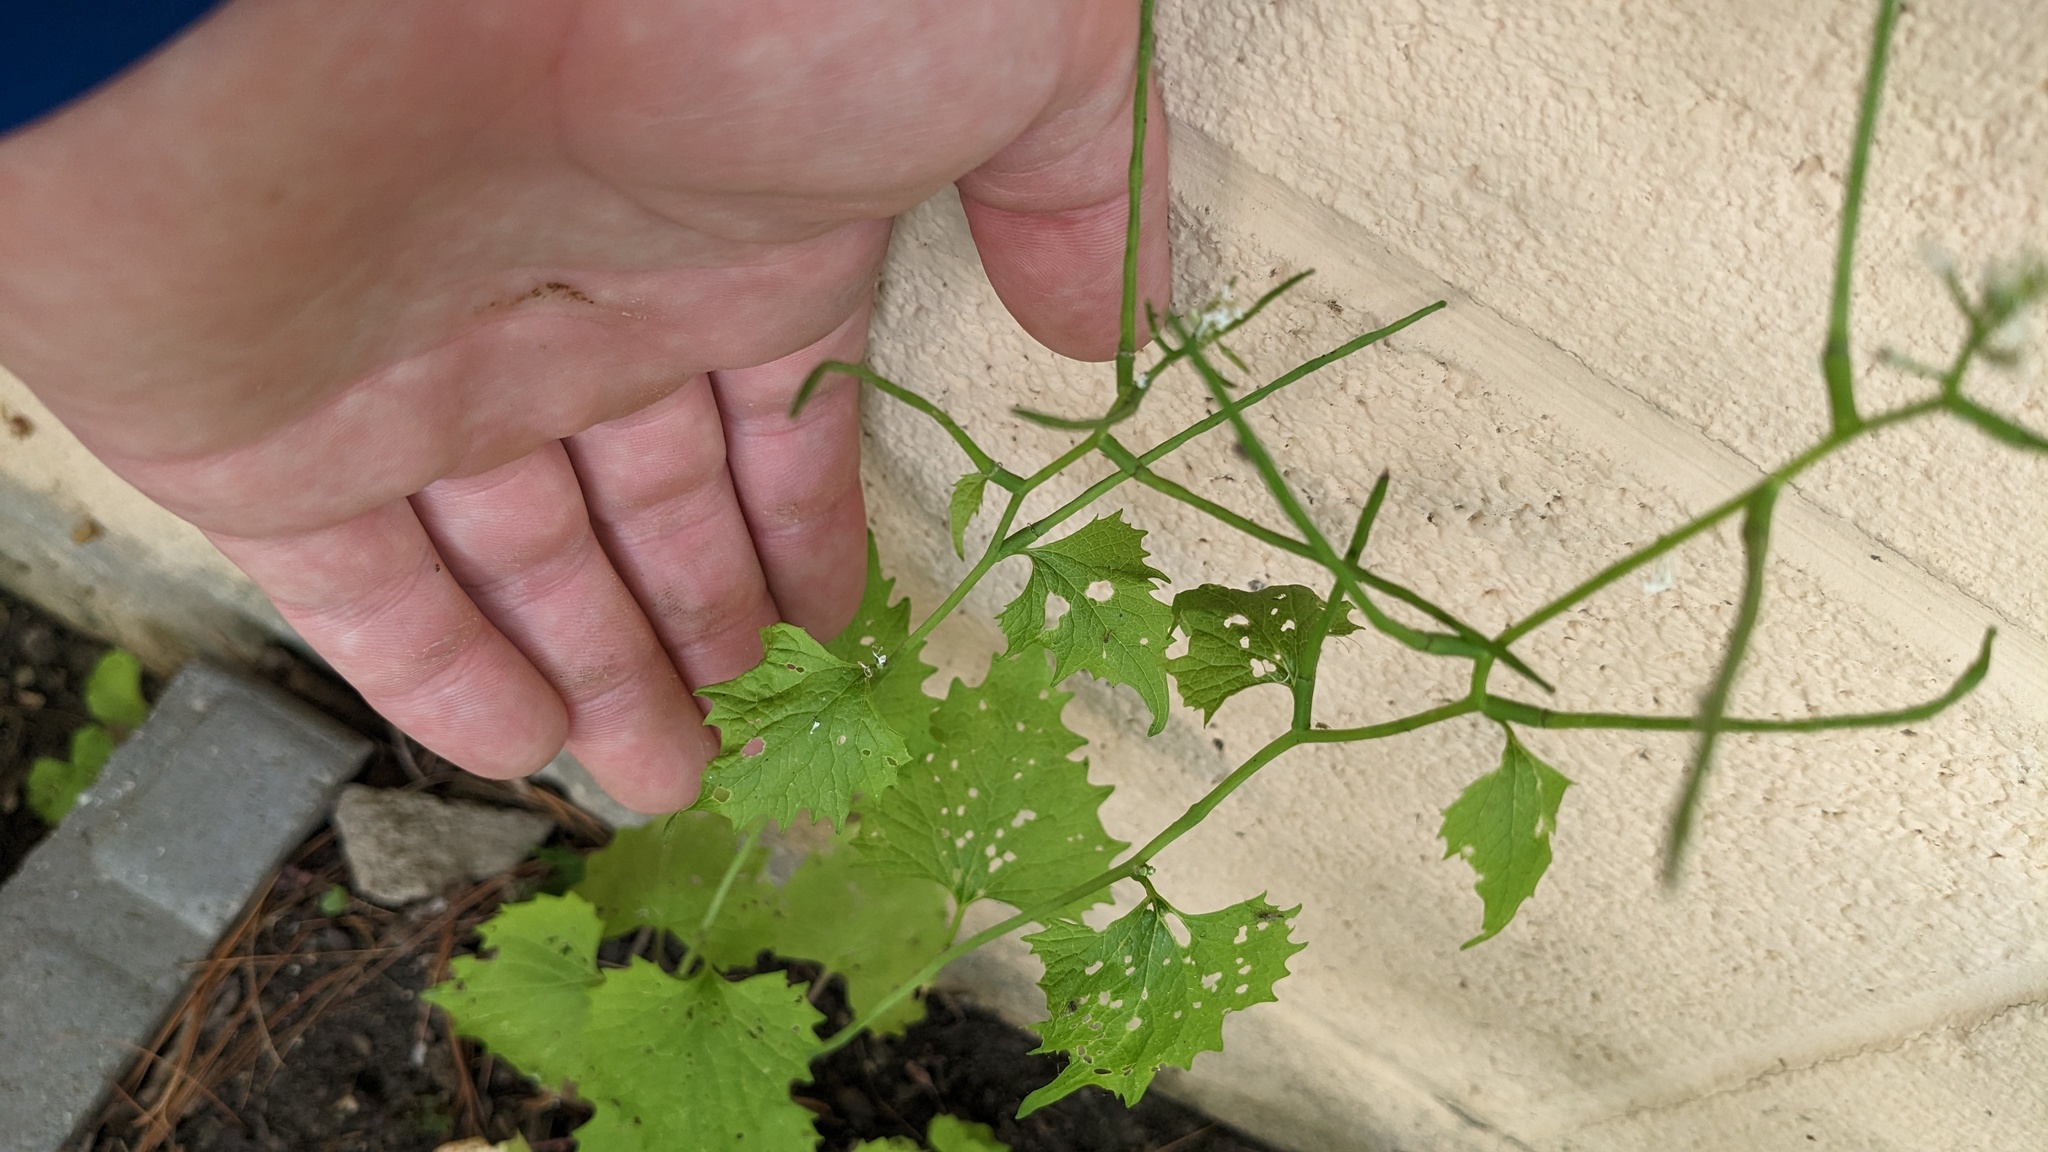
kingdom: Plantae
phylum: Tracheophyta
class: Magnoliopsida
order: Brassicales
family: Brassicaceae
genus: Alliaria
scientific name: Alliaria petiolata
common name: Garlic mustard
